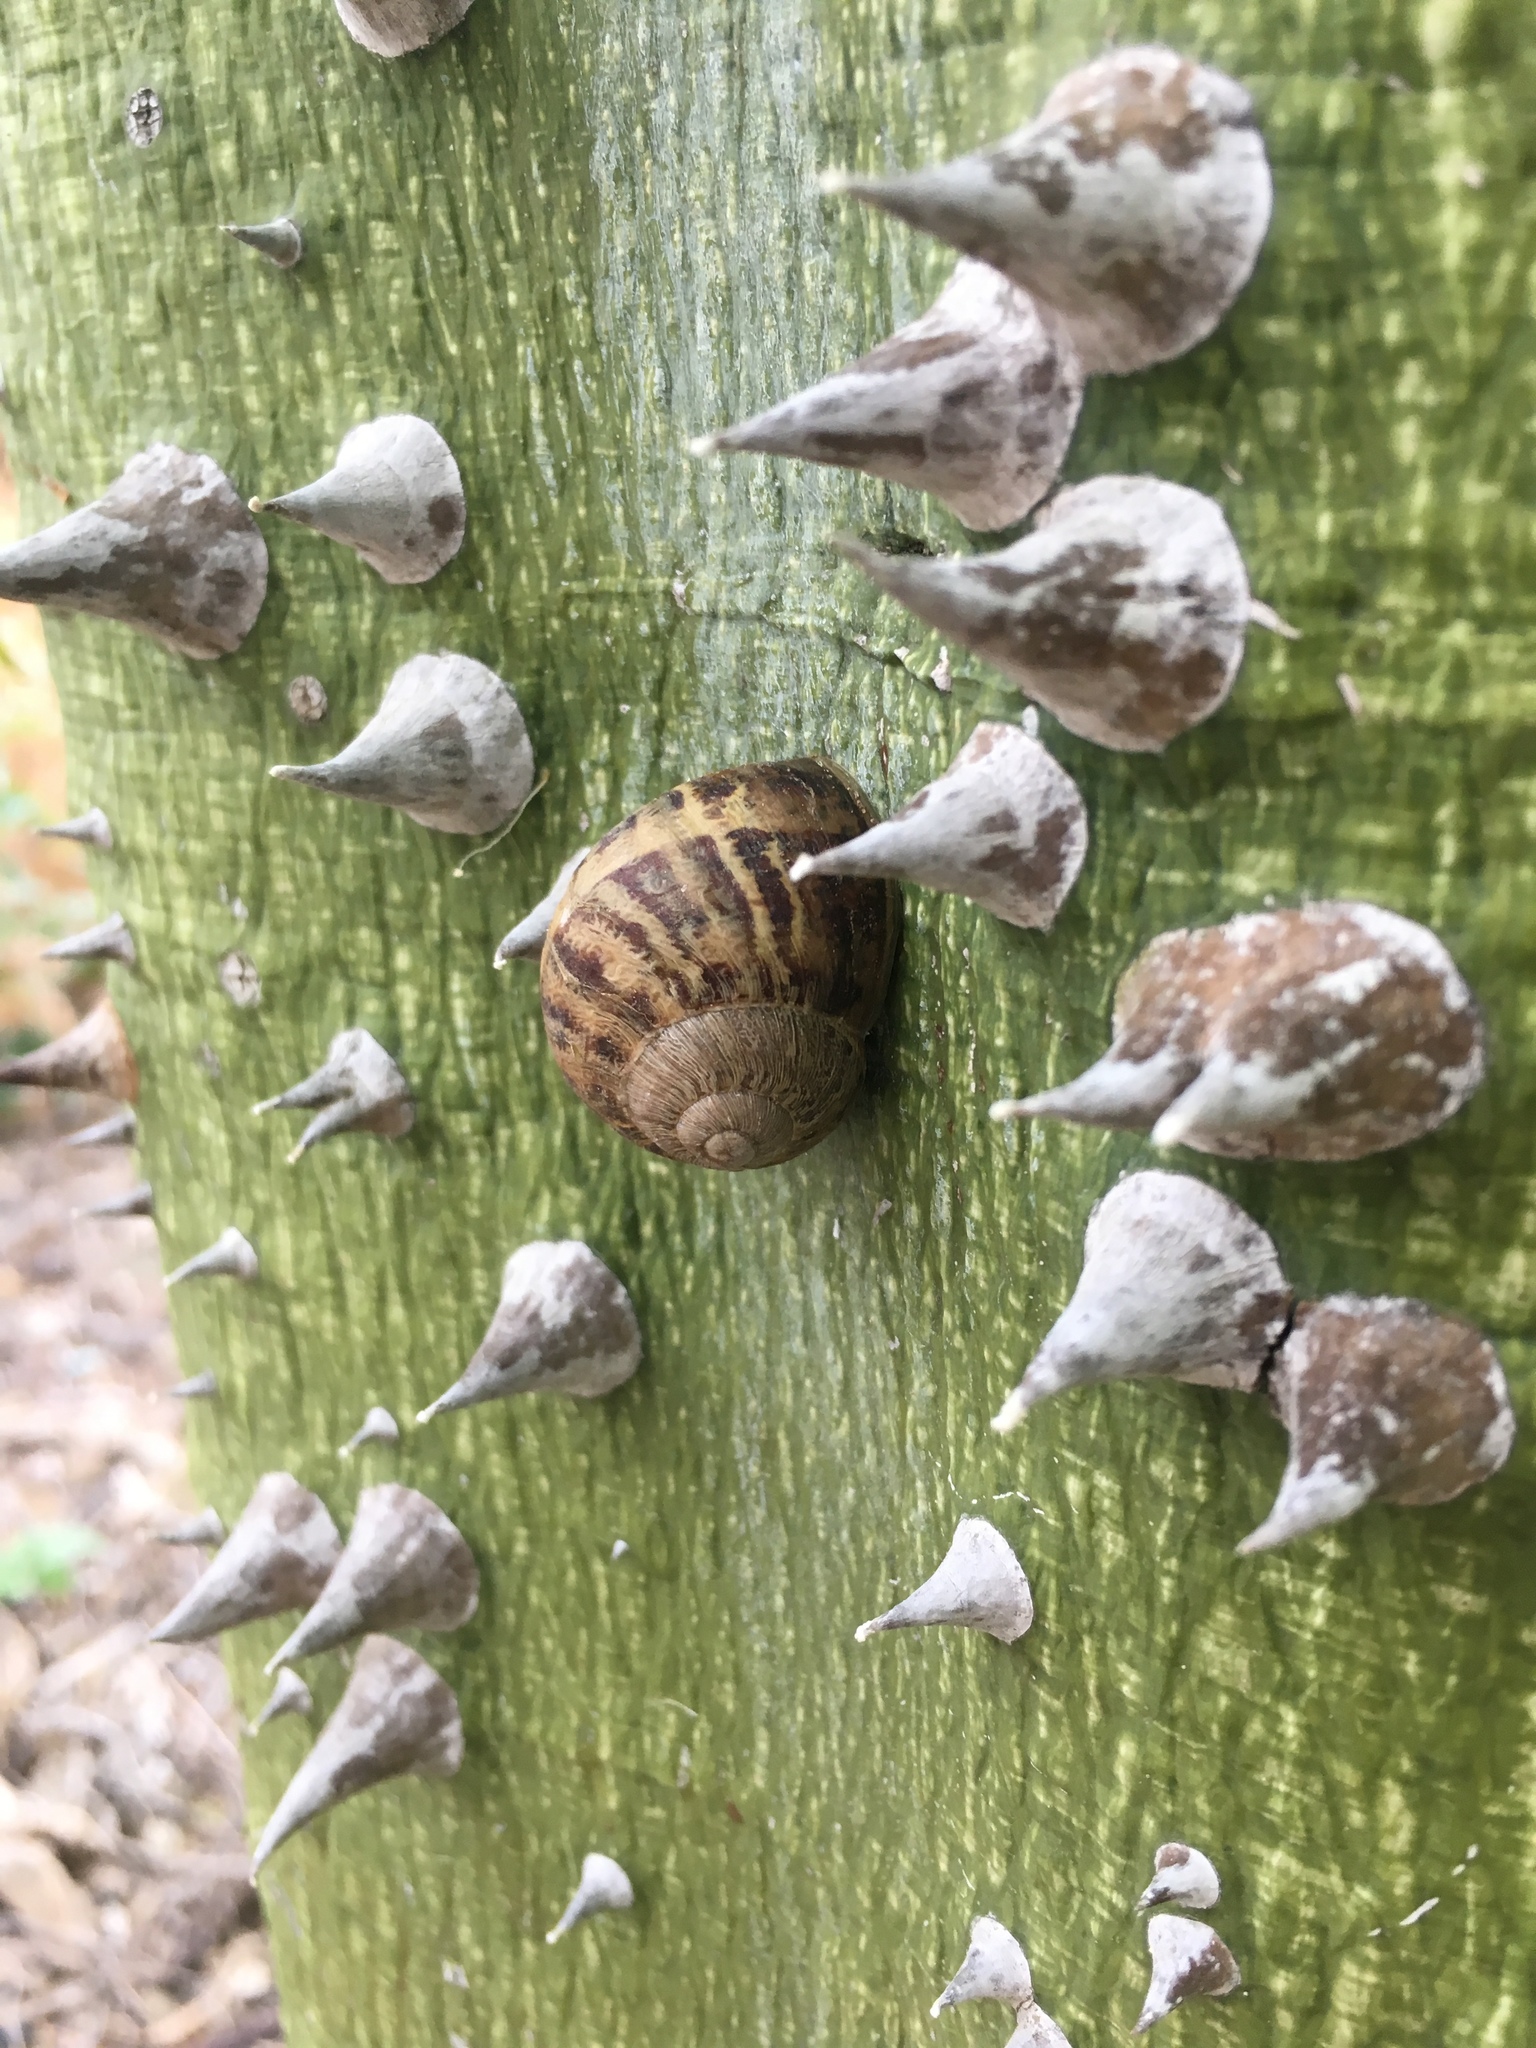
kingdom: Animalia
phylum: Mollusca
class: Gastropoda
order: Stylommatophora
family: Helicidae
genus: Cornu
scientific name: Cornu aspersum
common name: Brown garden snail
